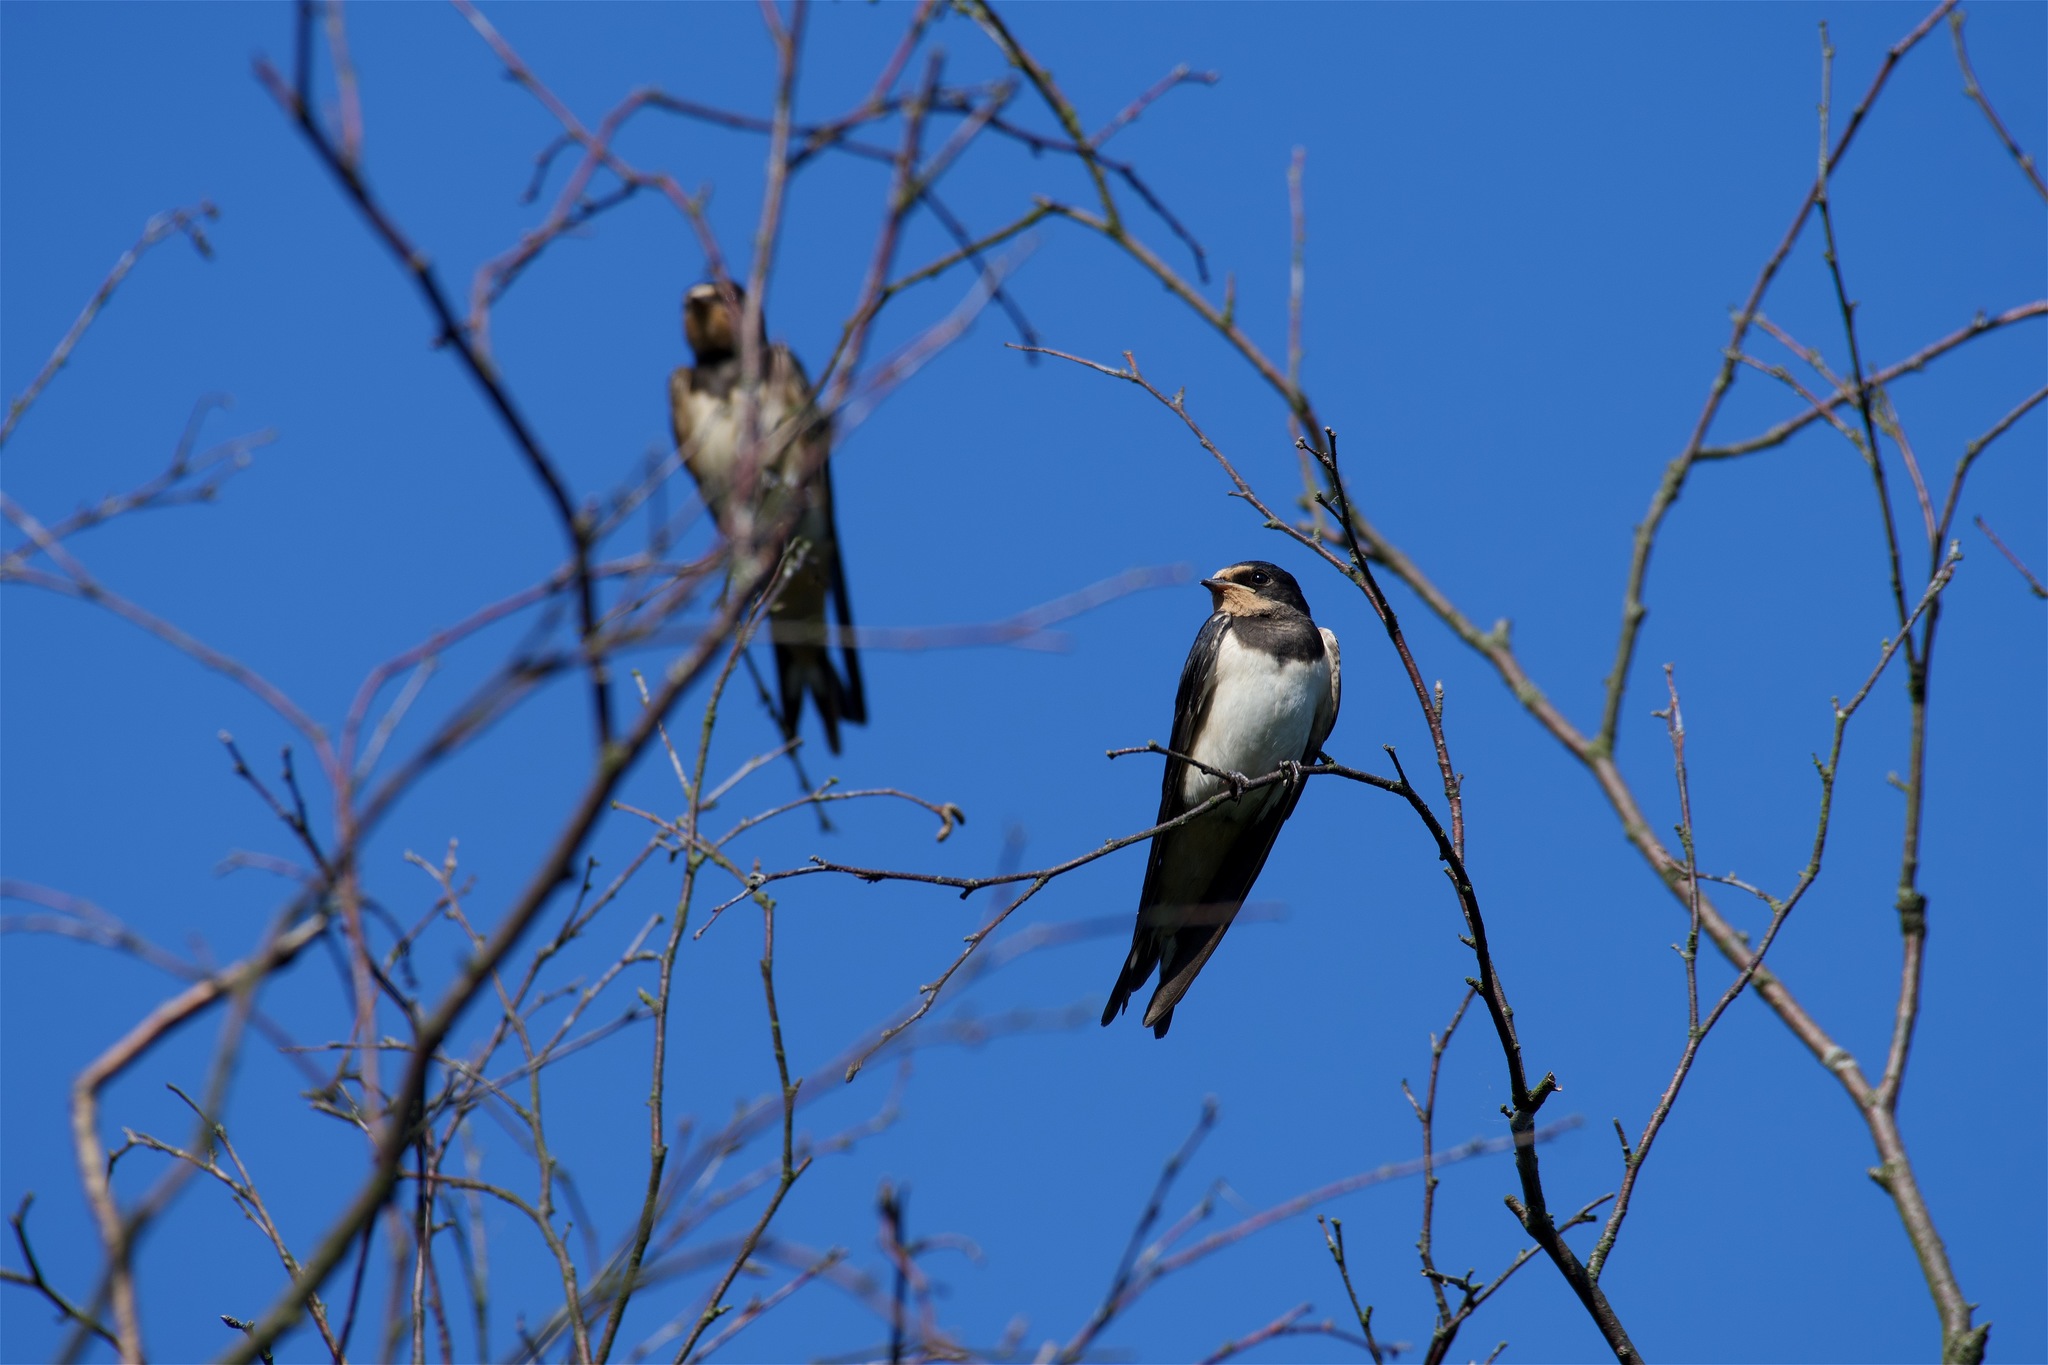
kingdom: Animalia
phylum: Chordata
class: Aves
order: Passeriformes
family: Hirundinidae
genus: Hirundo
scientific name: Hirundo rustica
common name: Barn swallow
